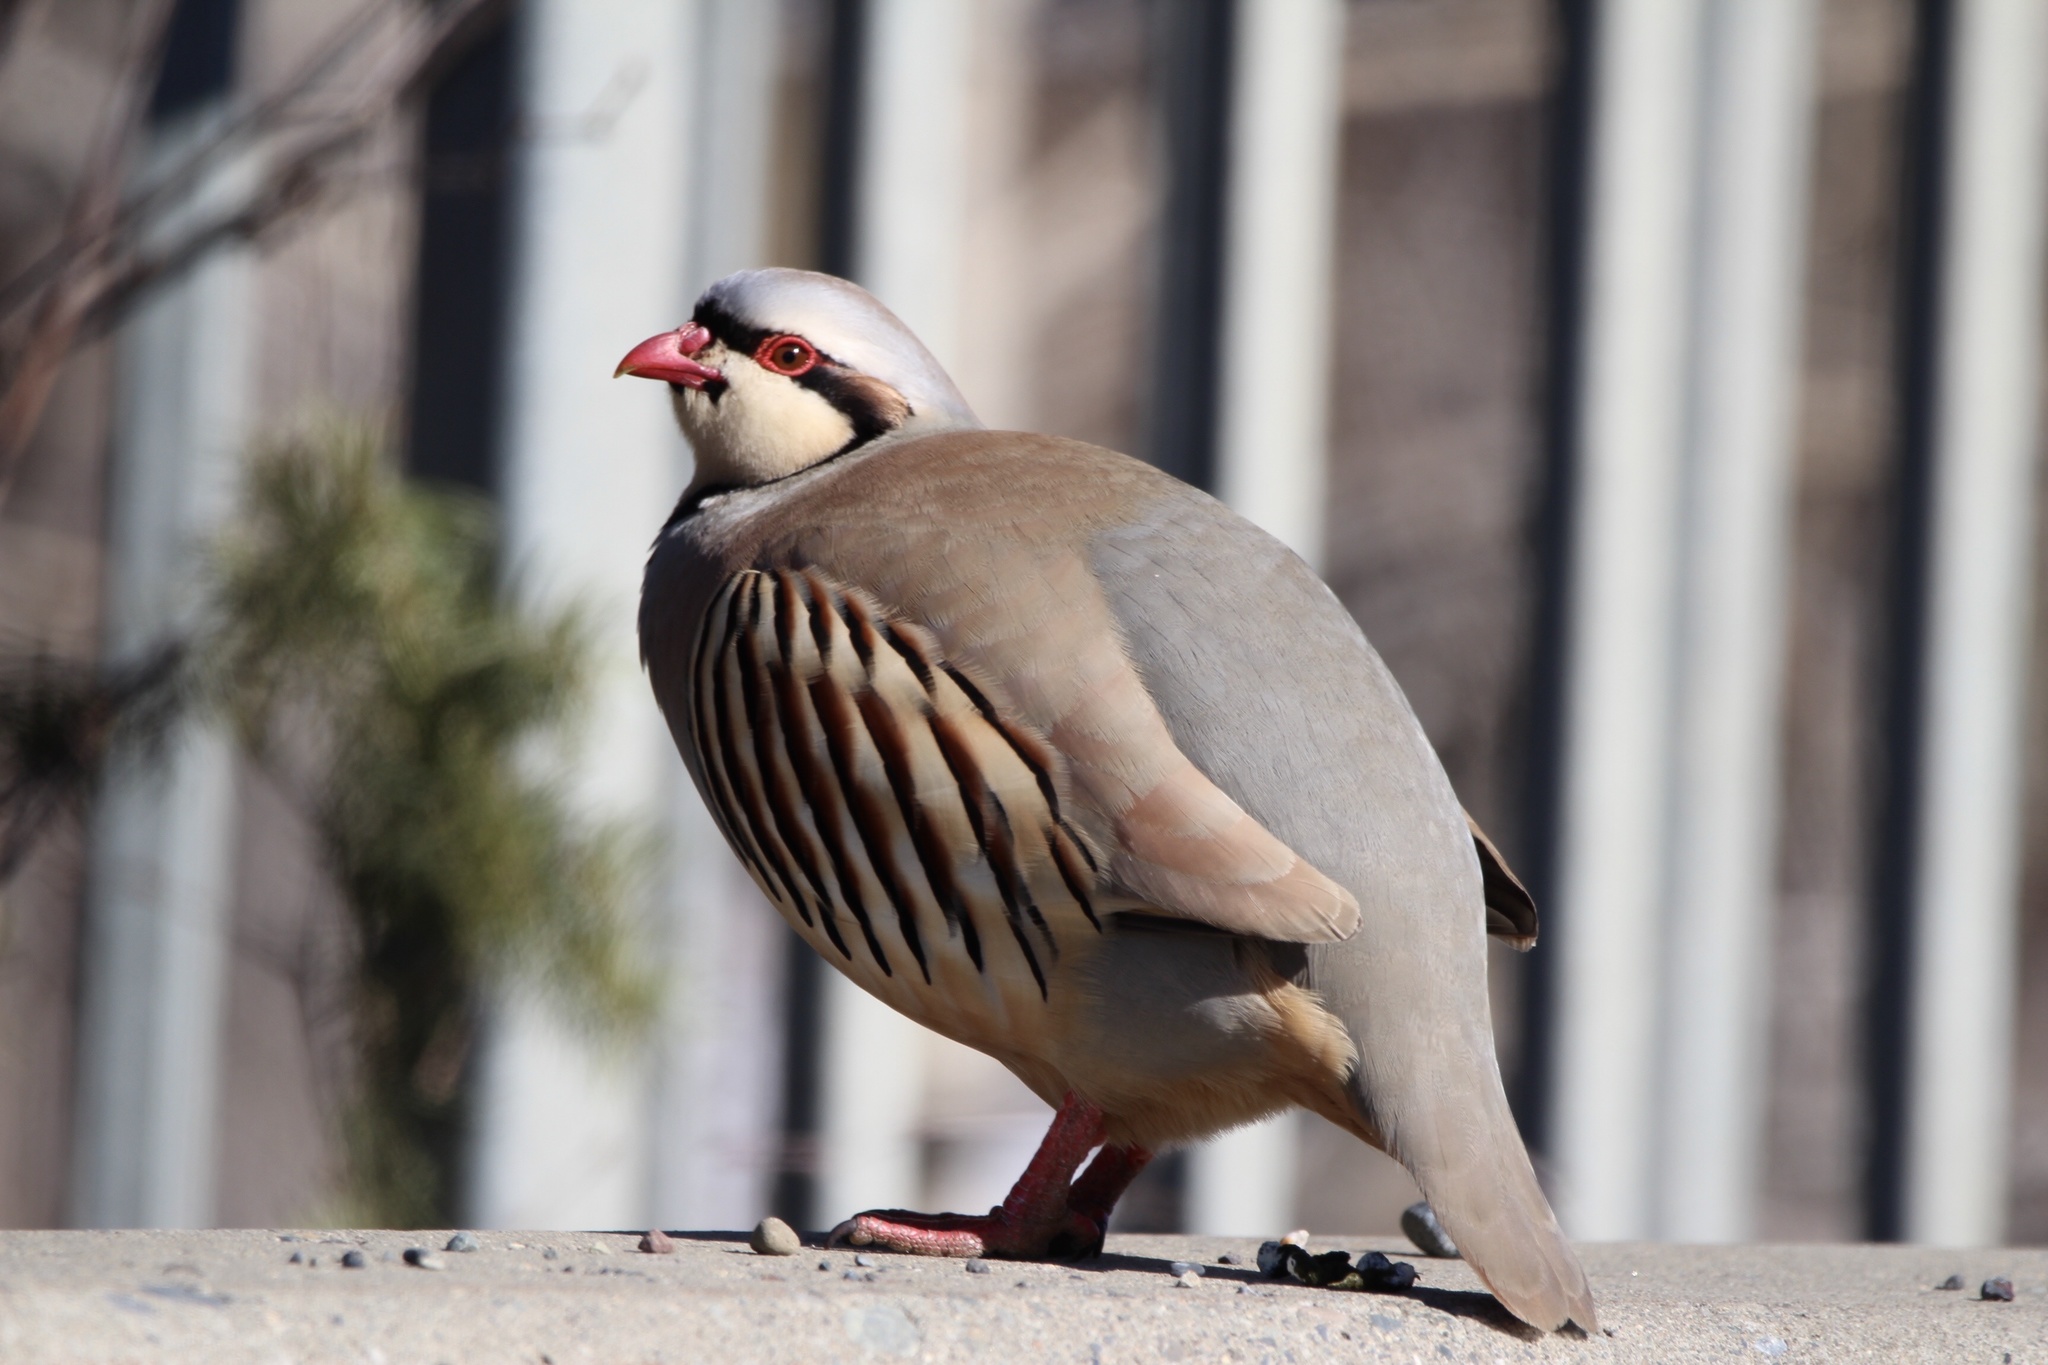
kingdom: Animalia
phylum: Chordata
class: Aves
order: Galliformes
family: Phasianidae
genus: Alectoris
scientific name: Alectoris chukar
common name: Chukar
